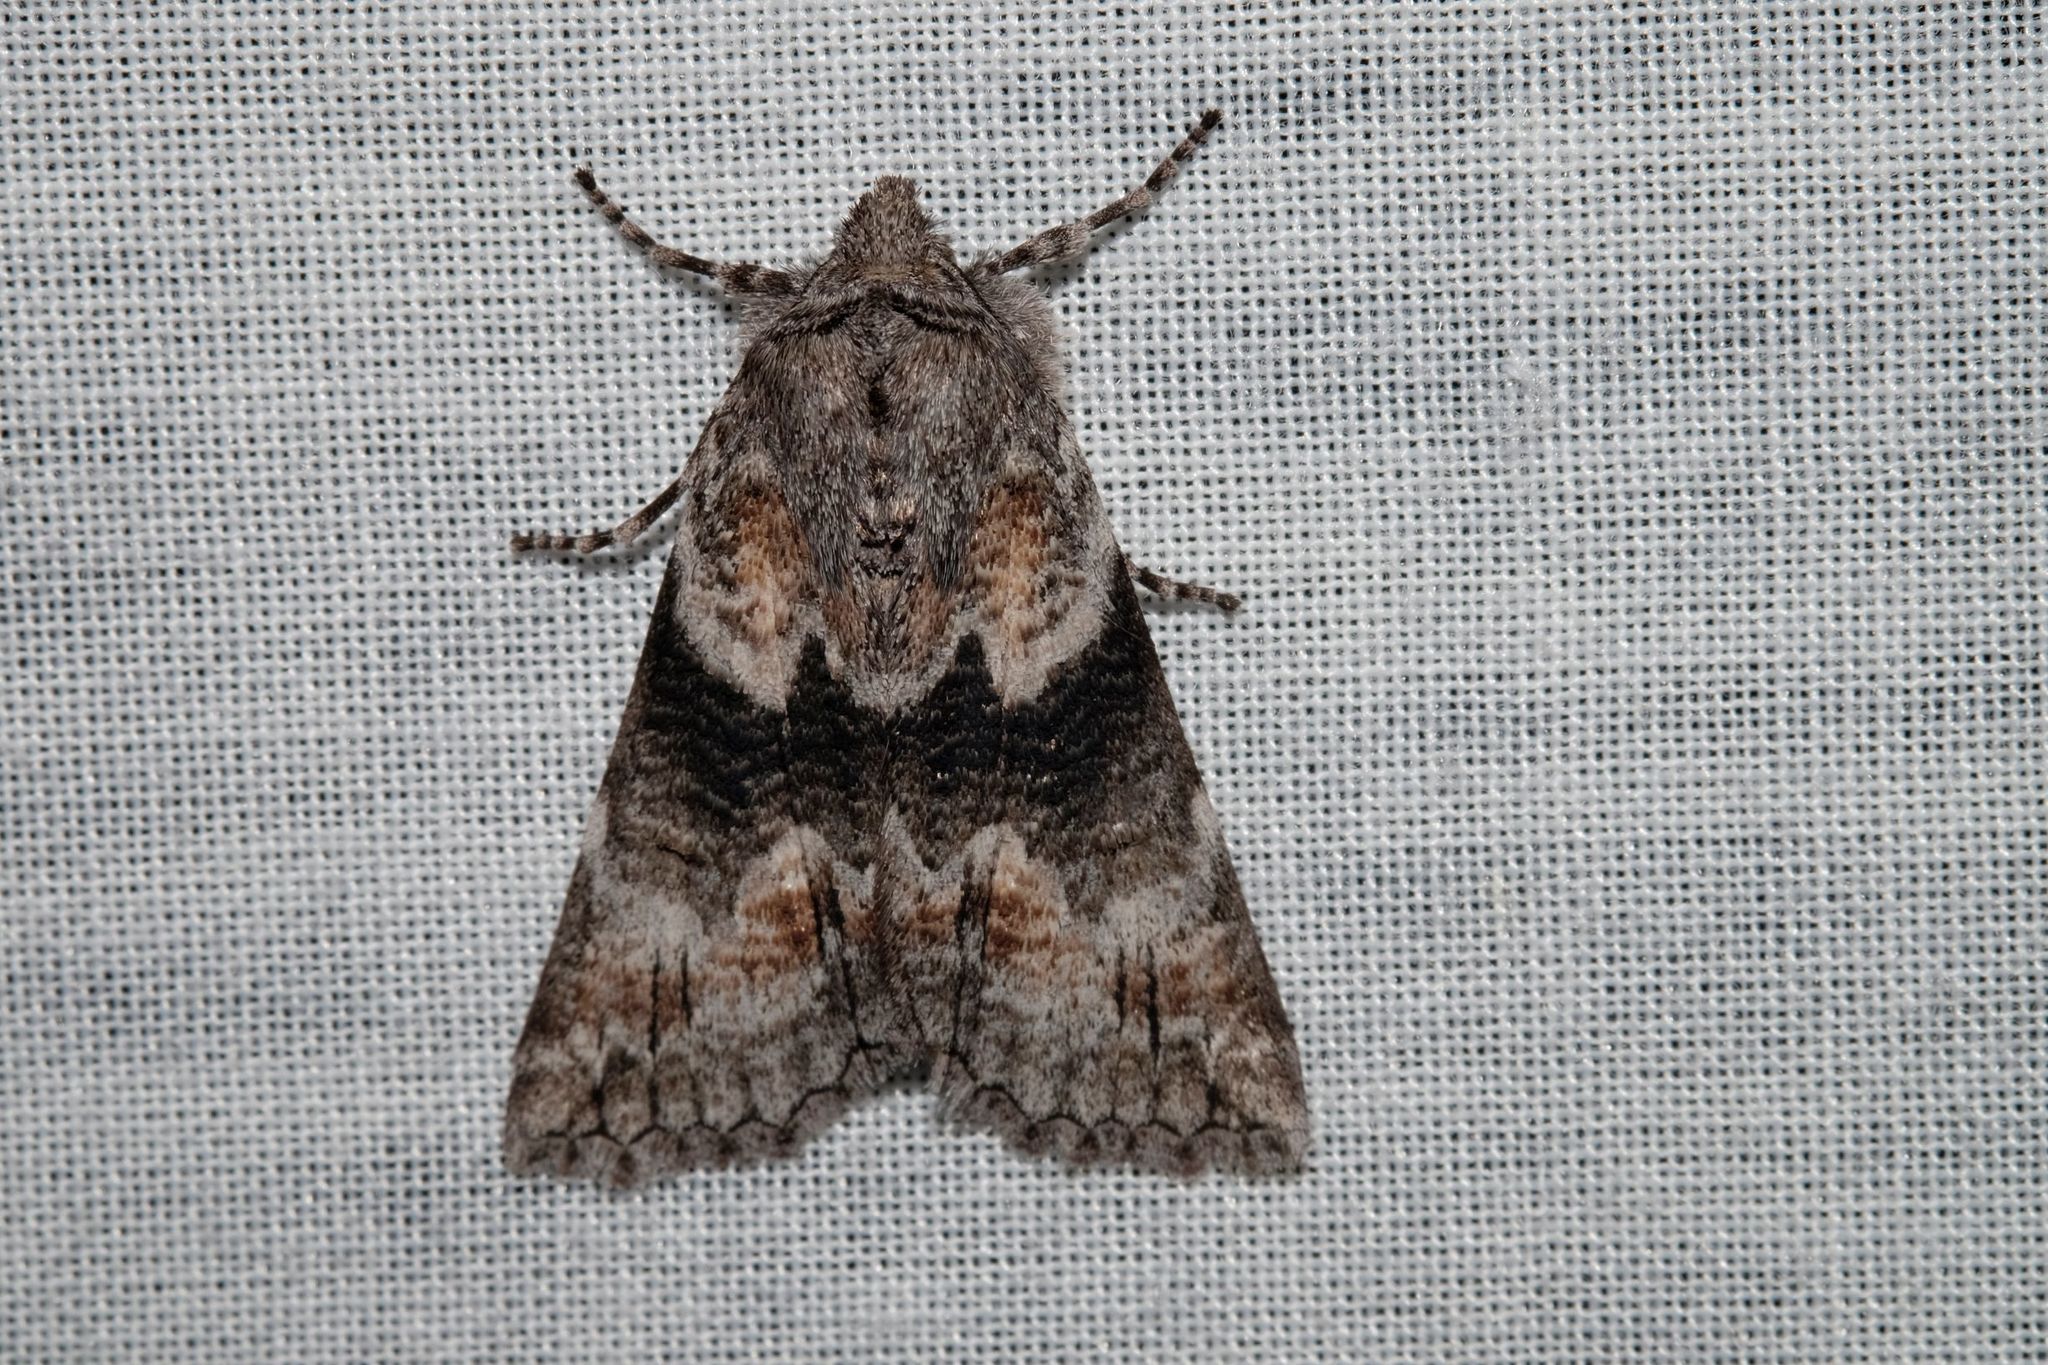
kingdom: Animalia
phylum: Arthropoda
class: Insecta
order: Lepidoptera
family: Geometridae
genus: Nisista
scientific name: Nisista galearia
